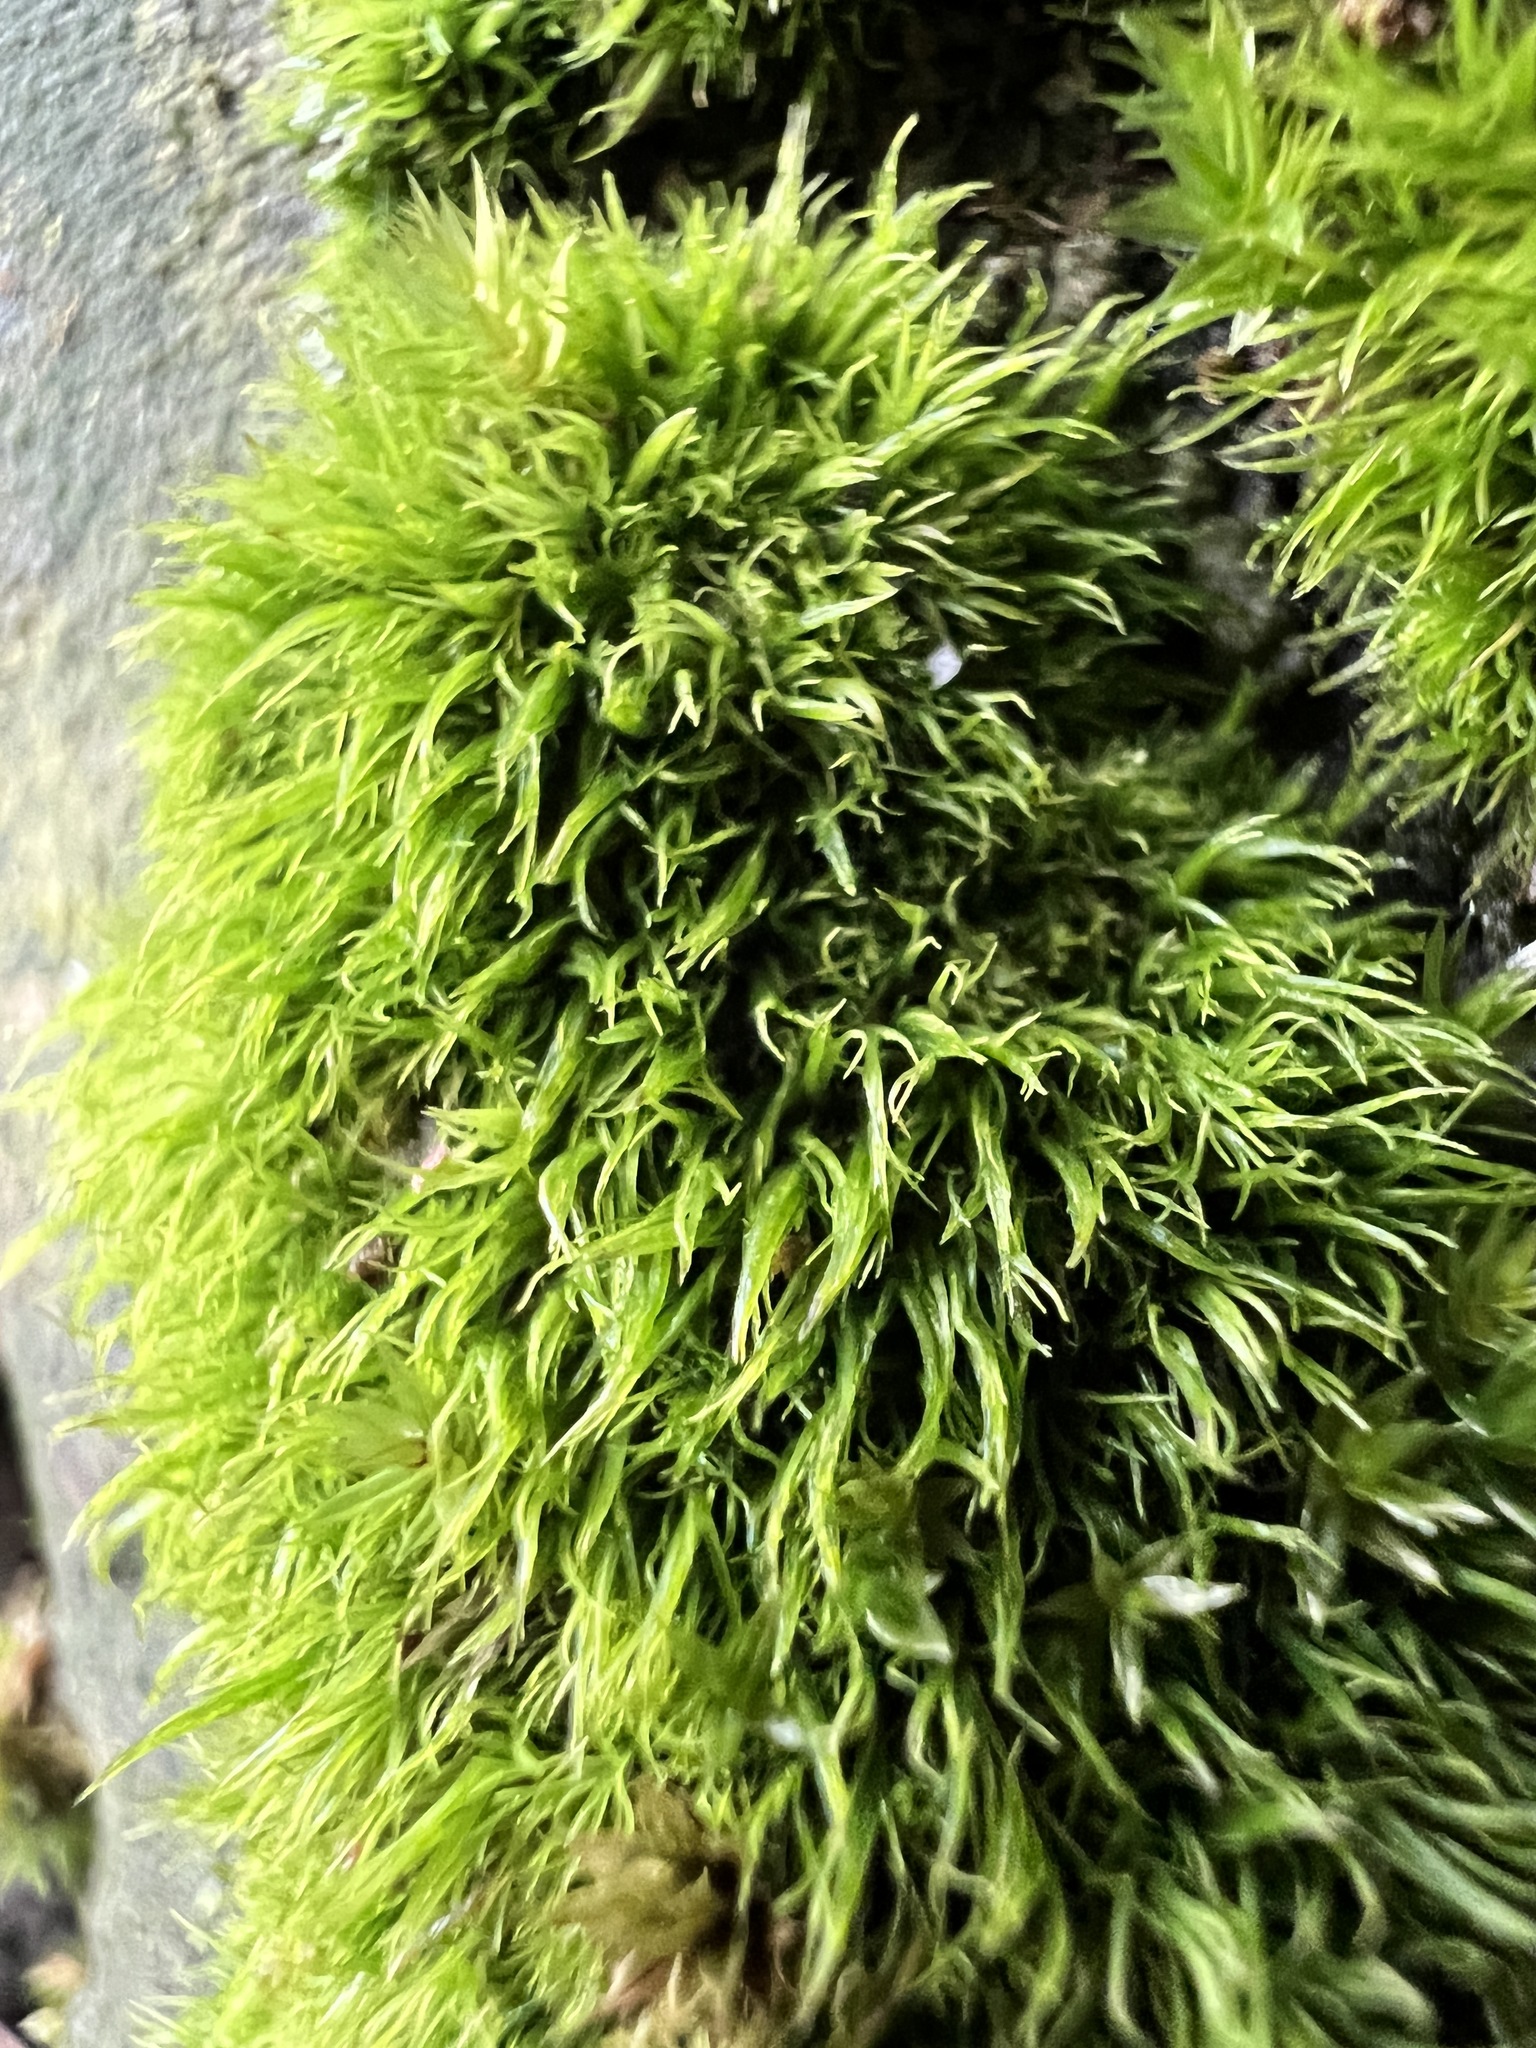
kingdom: Plantae
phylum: Bryophyta
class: Bryopsida
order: Dicranales
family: Dicranaceae
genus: Dicranum
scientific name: Dicranum scoparium
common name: Broom fork-moss
